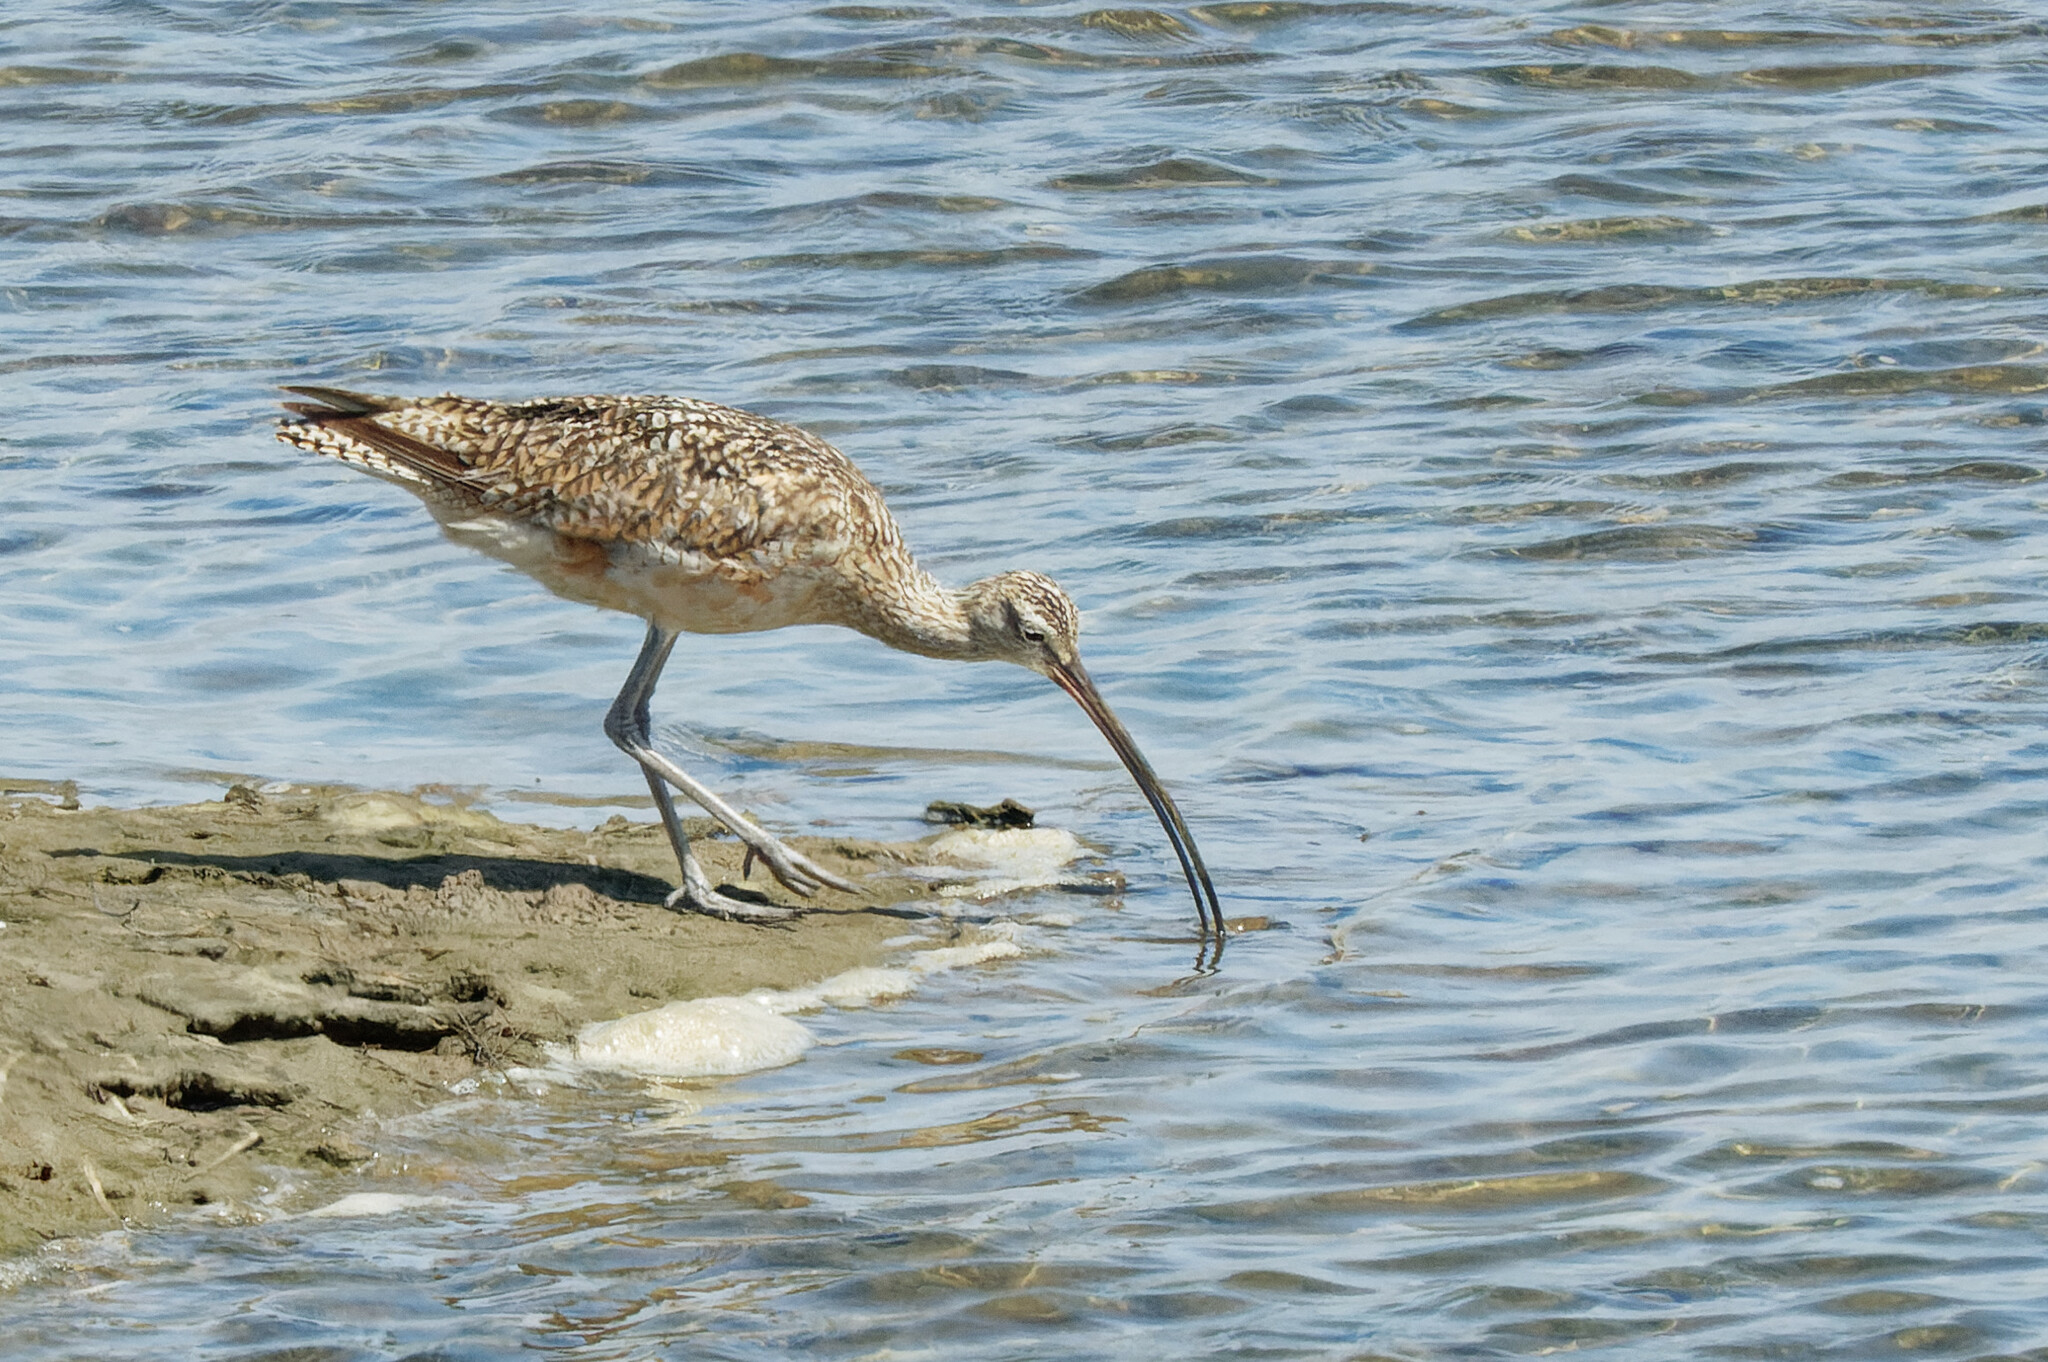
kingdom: Animalia
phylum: Chordata
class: Aves
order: Charadriiformes
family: Scolopacidae
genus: Numenius
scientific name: Numenius americanus
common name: Long-billed curlew
